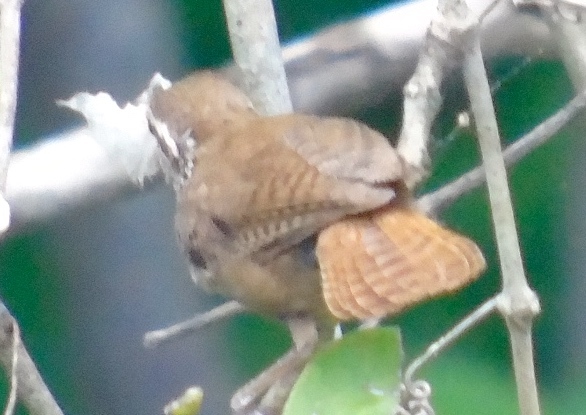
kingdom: Animalia
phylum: Chordata
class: Aves
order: Passeriformes
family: Troglodytidae
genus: Thryophilus
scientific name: Thryophilus sinaloa
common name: Sinaloa wren
